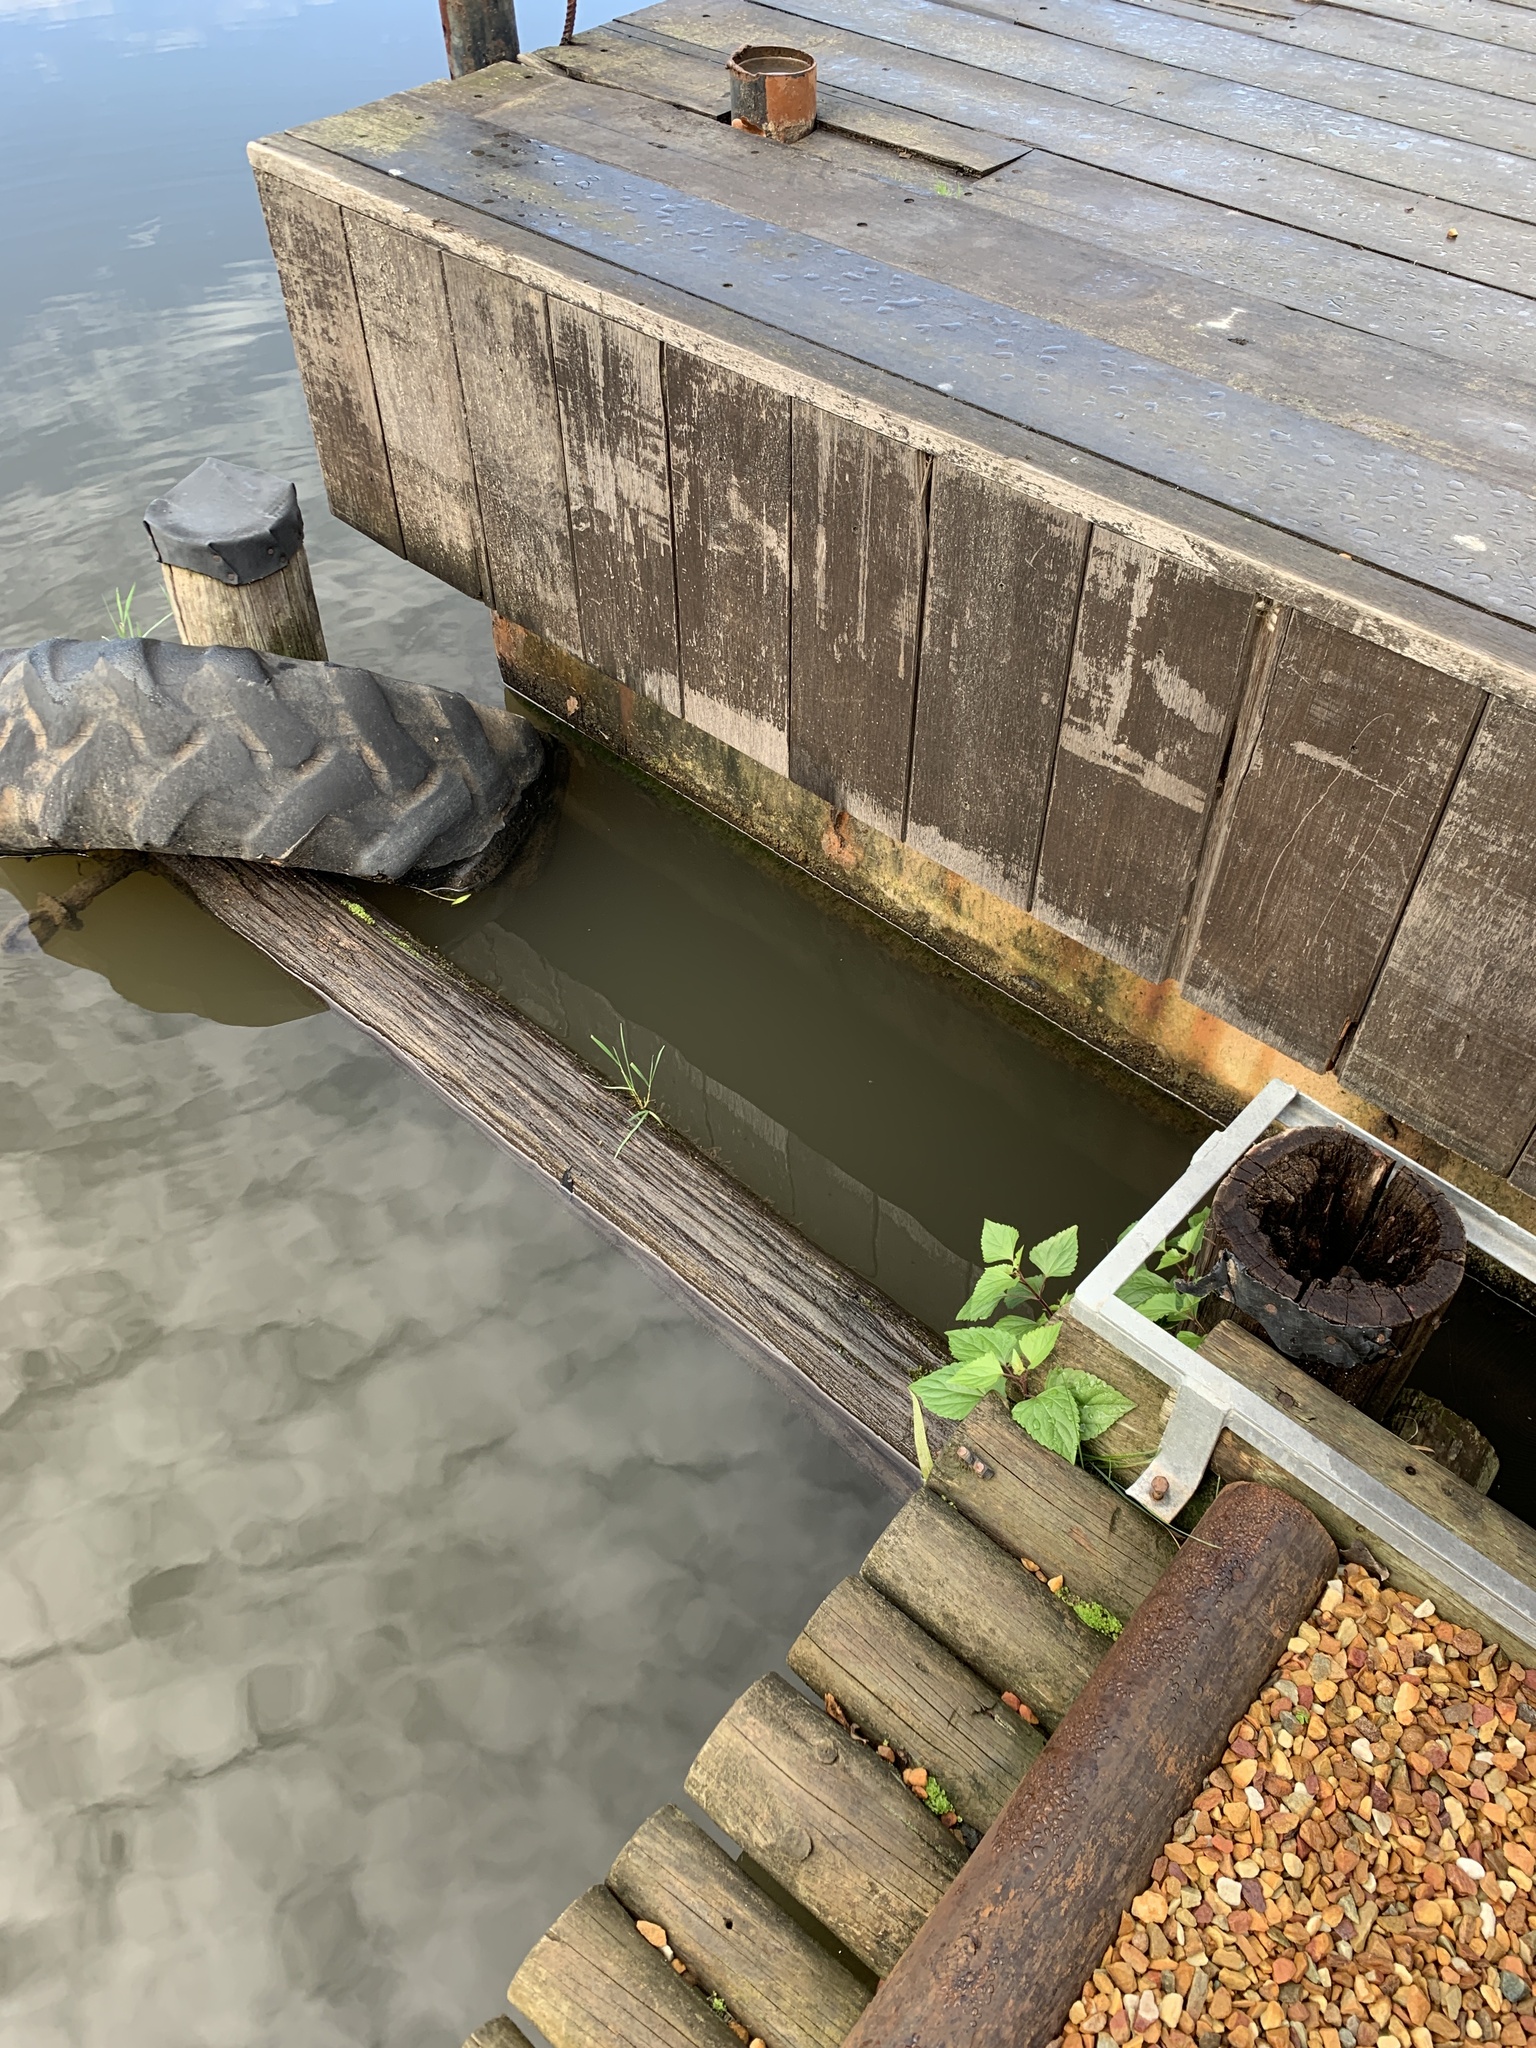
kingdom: Plantae
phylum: Tracheophyta
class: Magnoliopsida
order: Asterales
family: Asteraceae
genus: Ageratina
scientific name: Ageratina adenophora
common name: Sticky snakeroot
